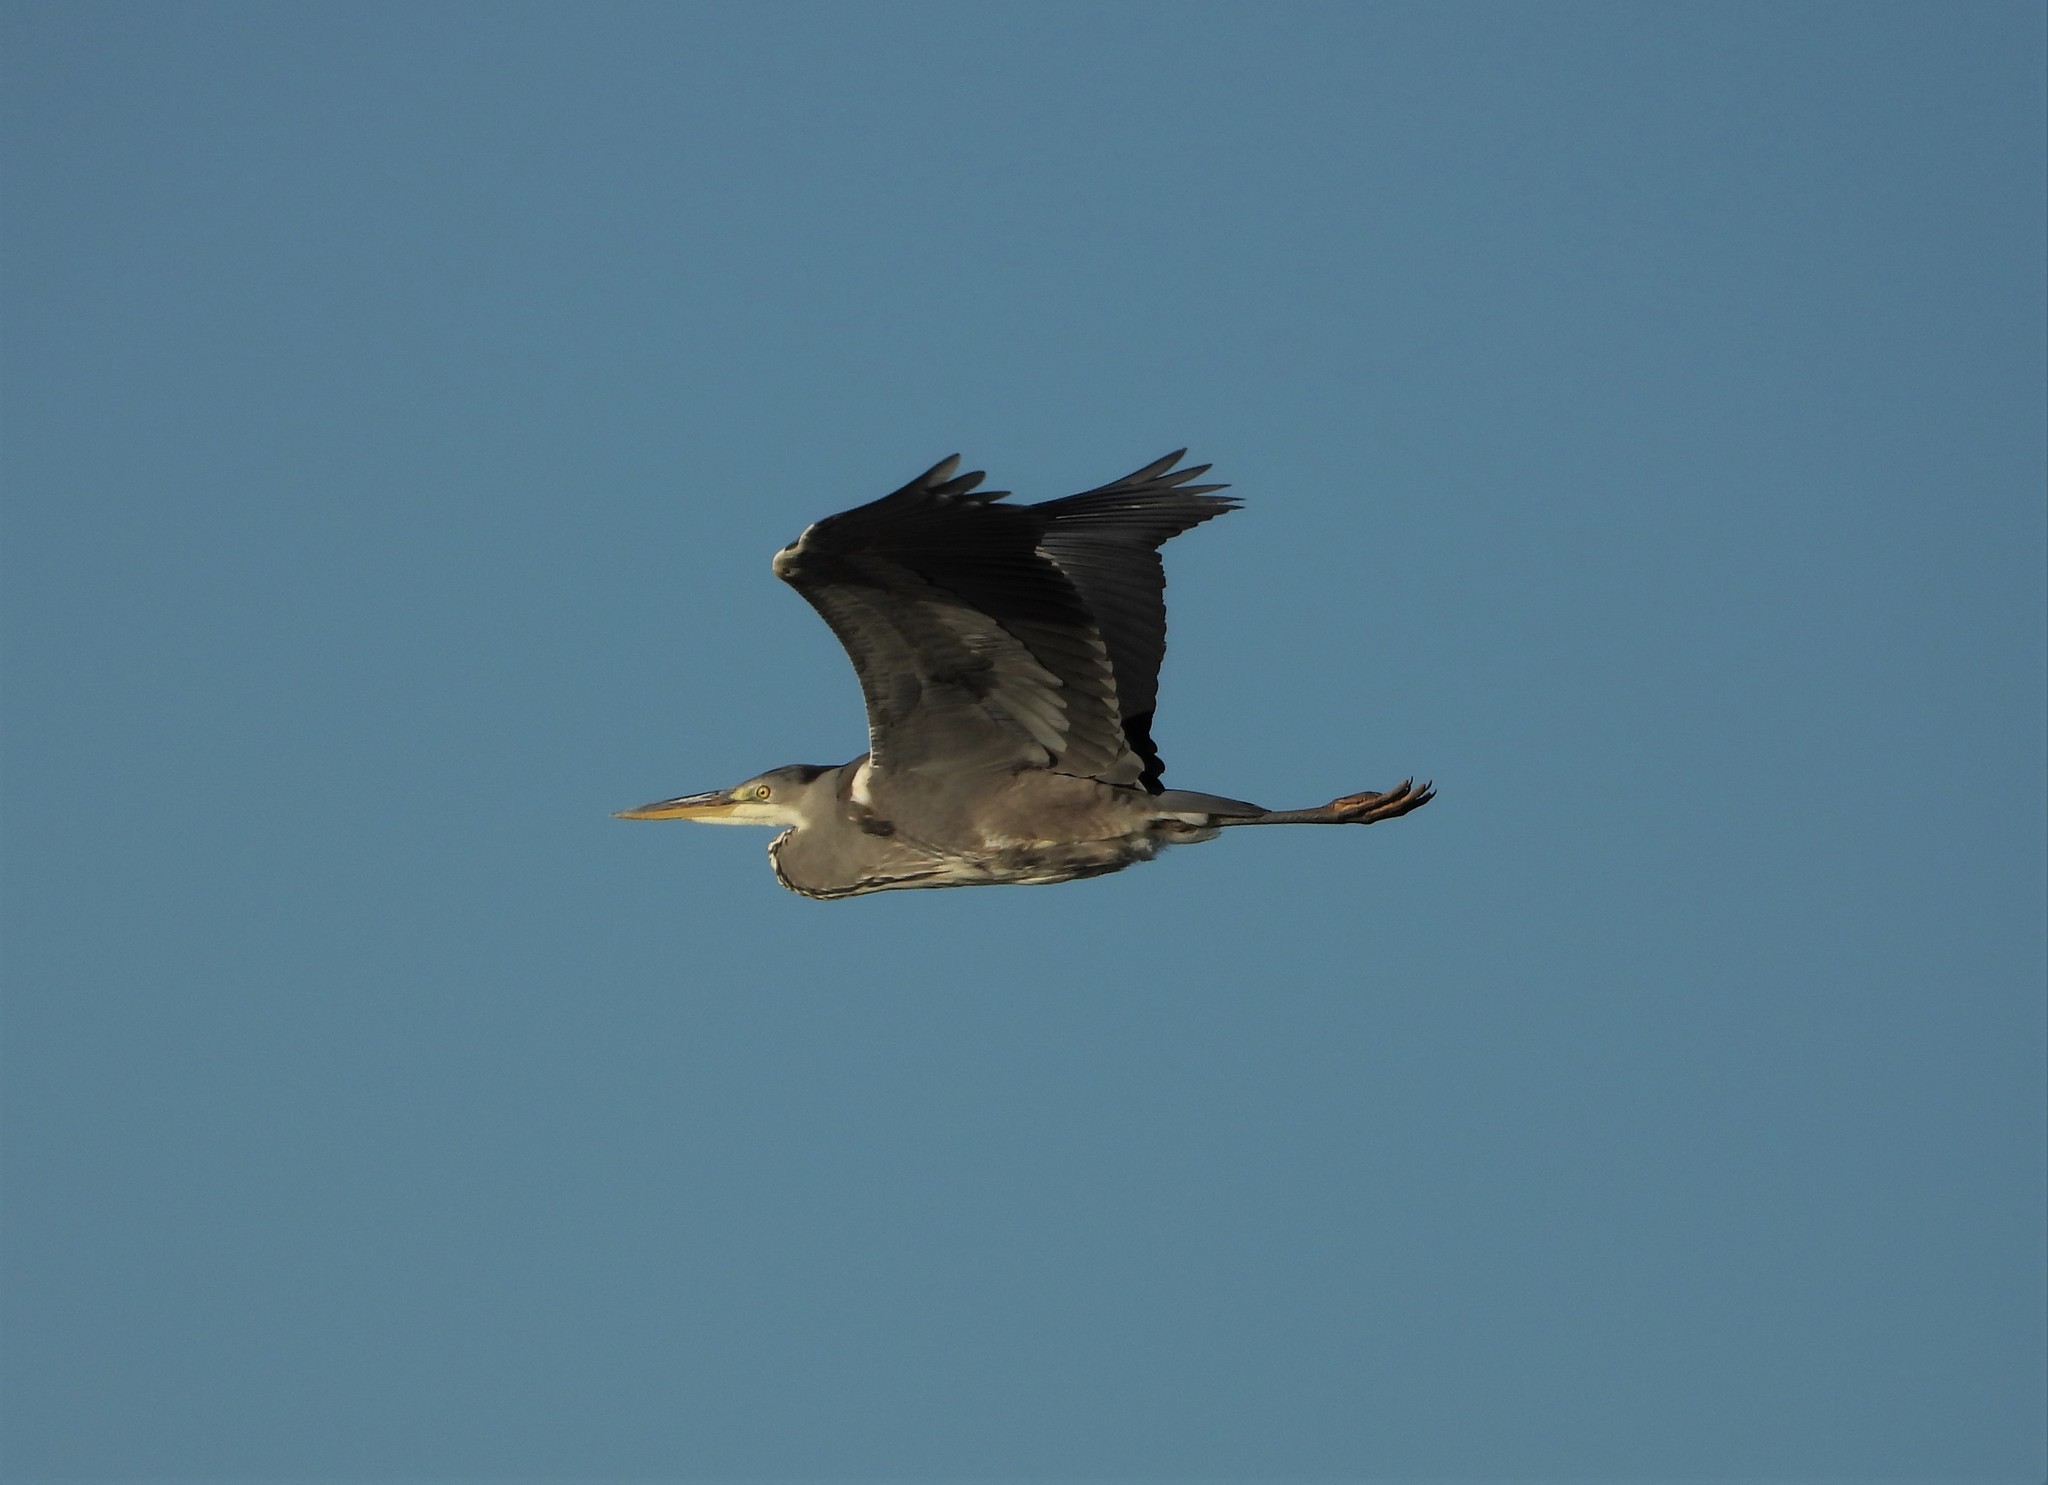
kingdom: Animalia
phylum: Chordata
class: Aves
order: Pelecaniformes
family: Ardeidae
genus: Ardea
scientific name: Ardea cinerea
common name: Grey heron
